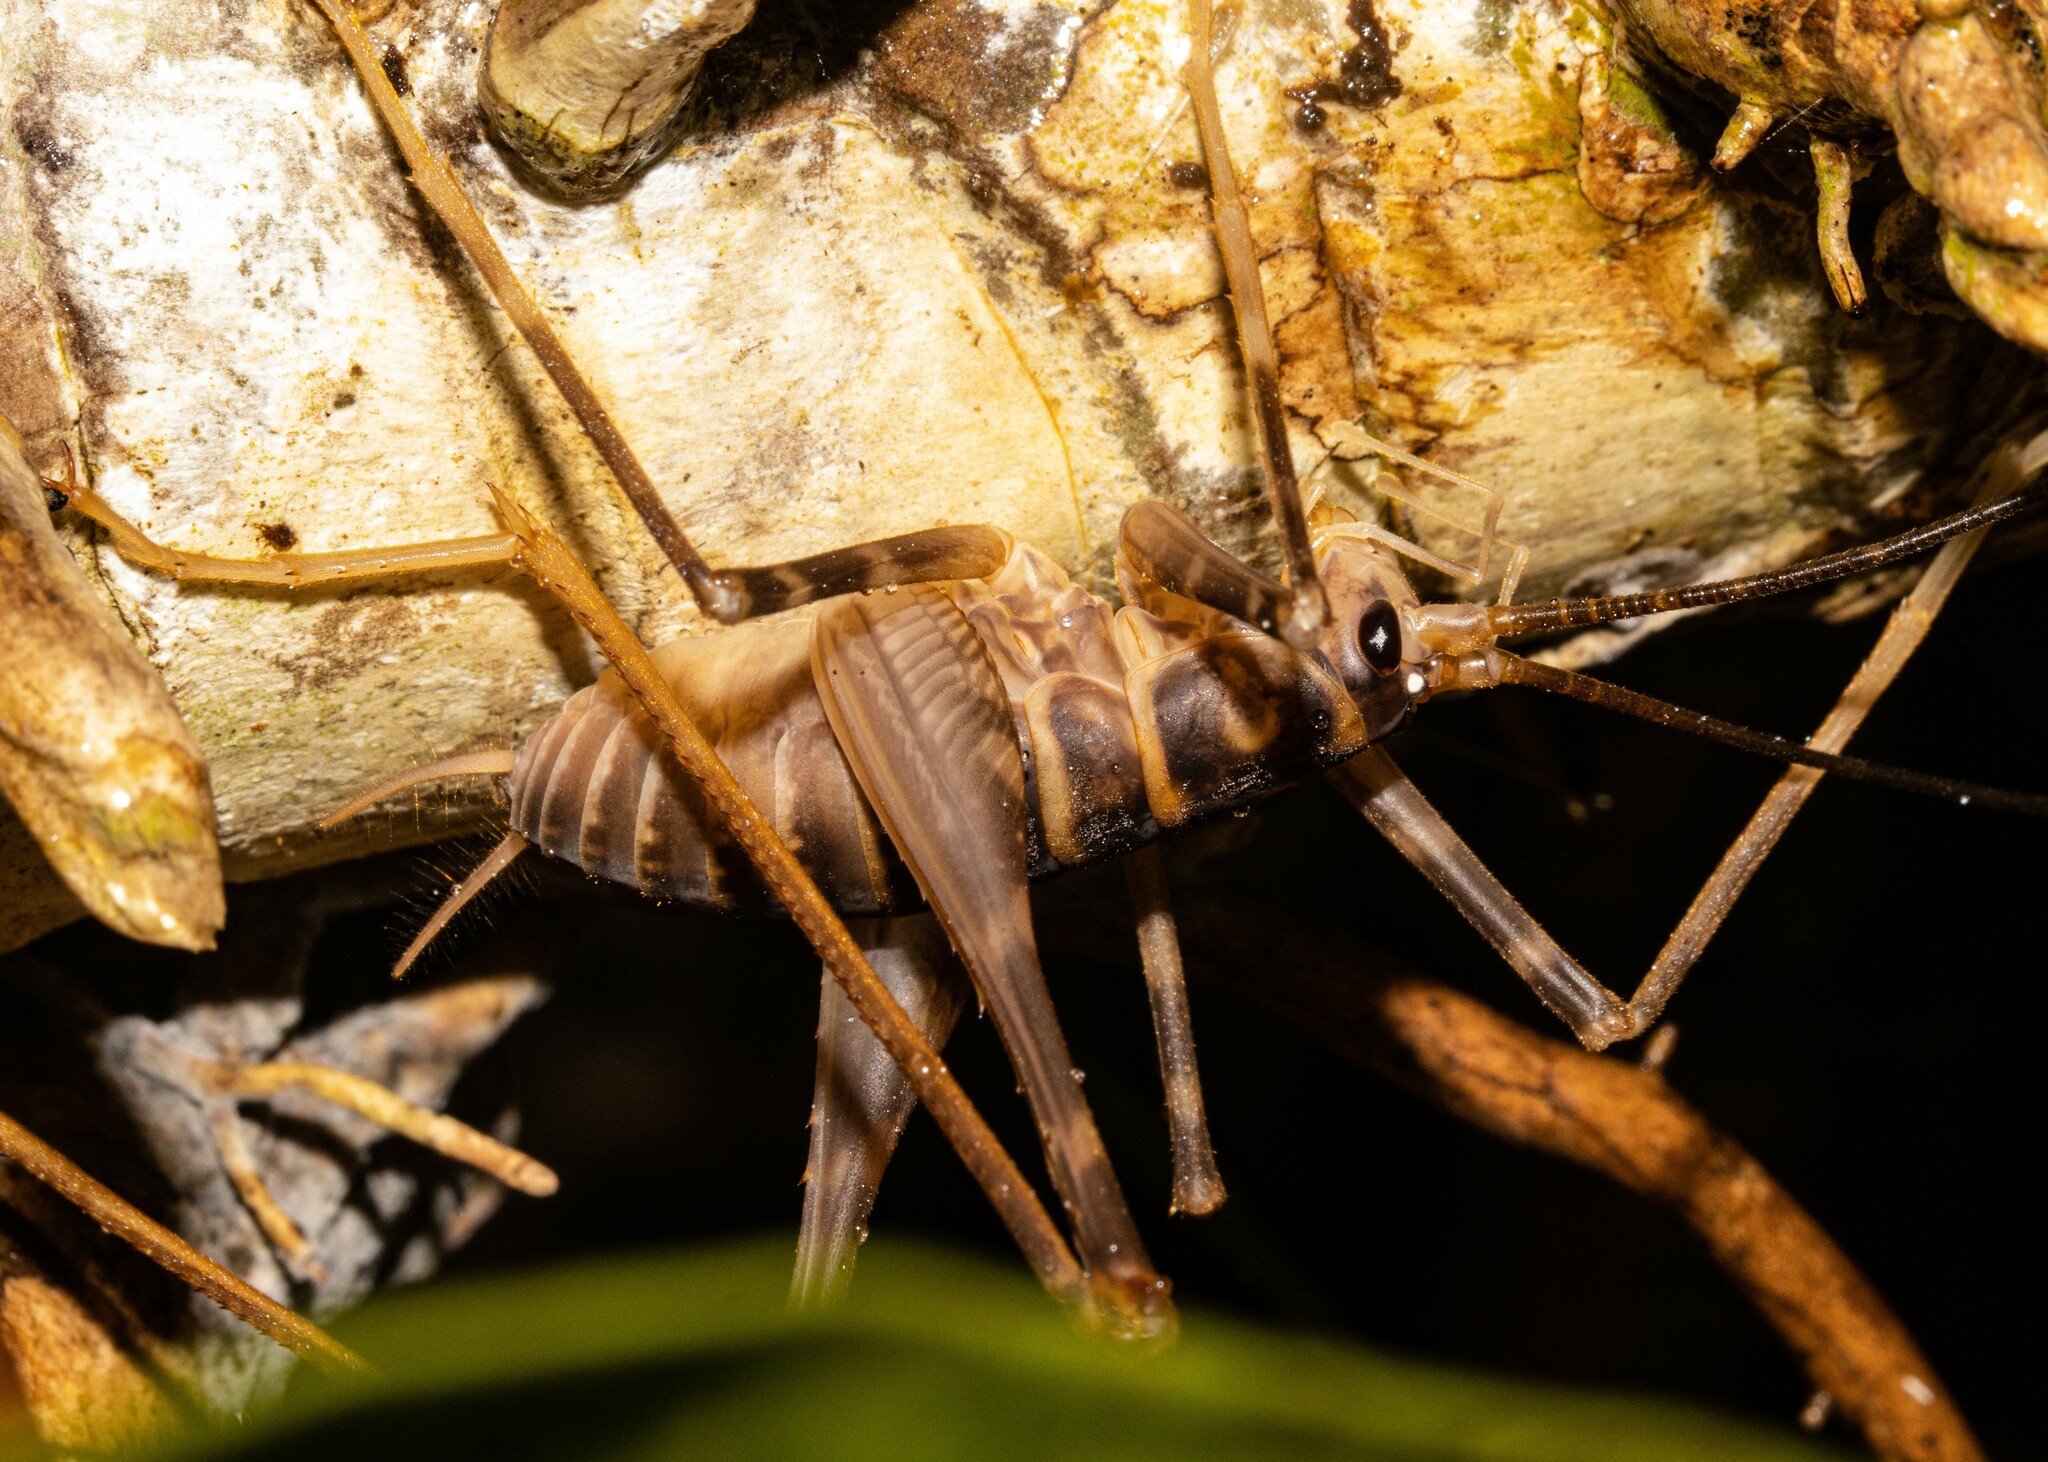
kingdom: Animalia
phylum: Arthropoda
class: Insecta
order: Orthoptera
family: Rhaphidophoridae
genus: Pachyrhamma
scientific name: Pachyrhamma acanthocera
